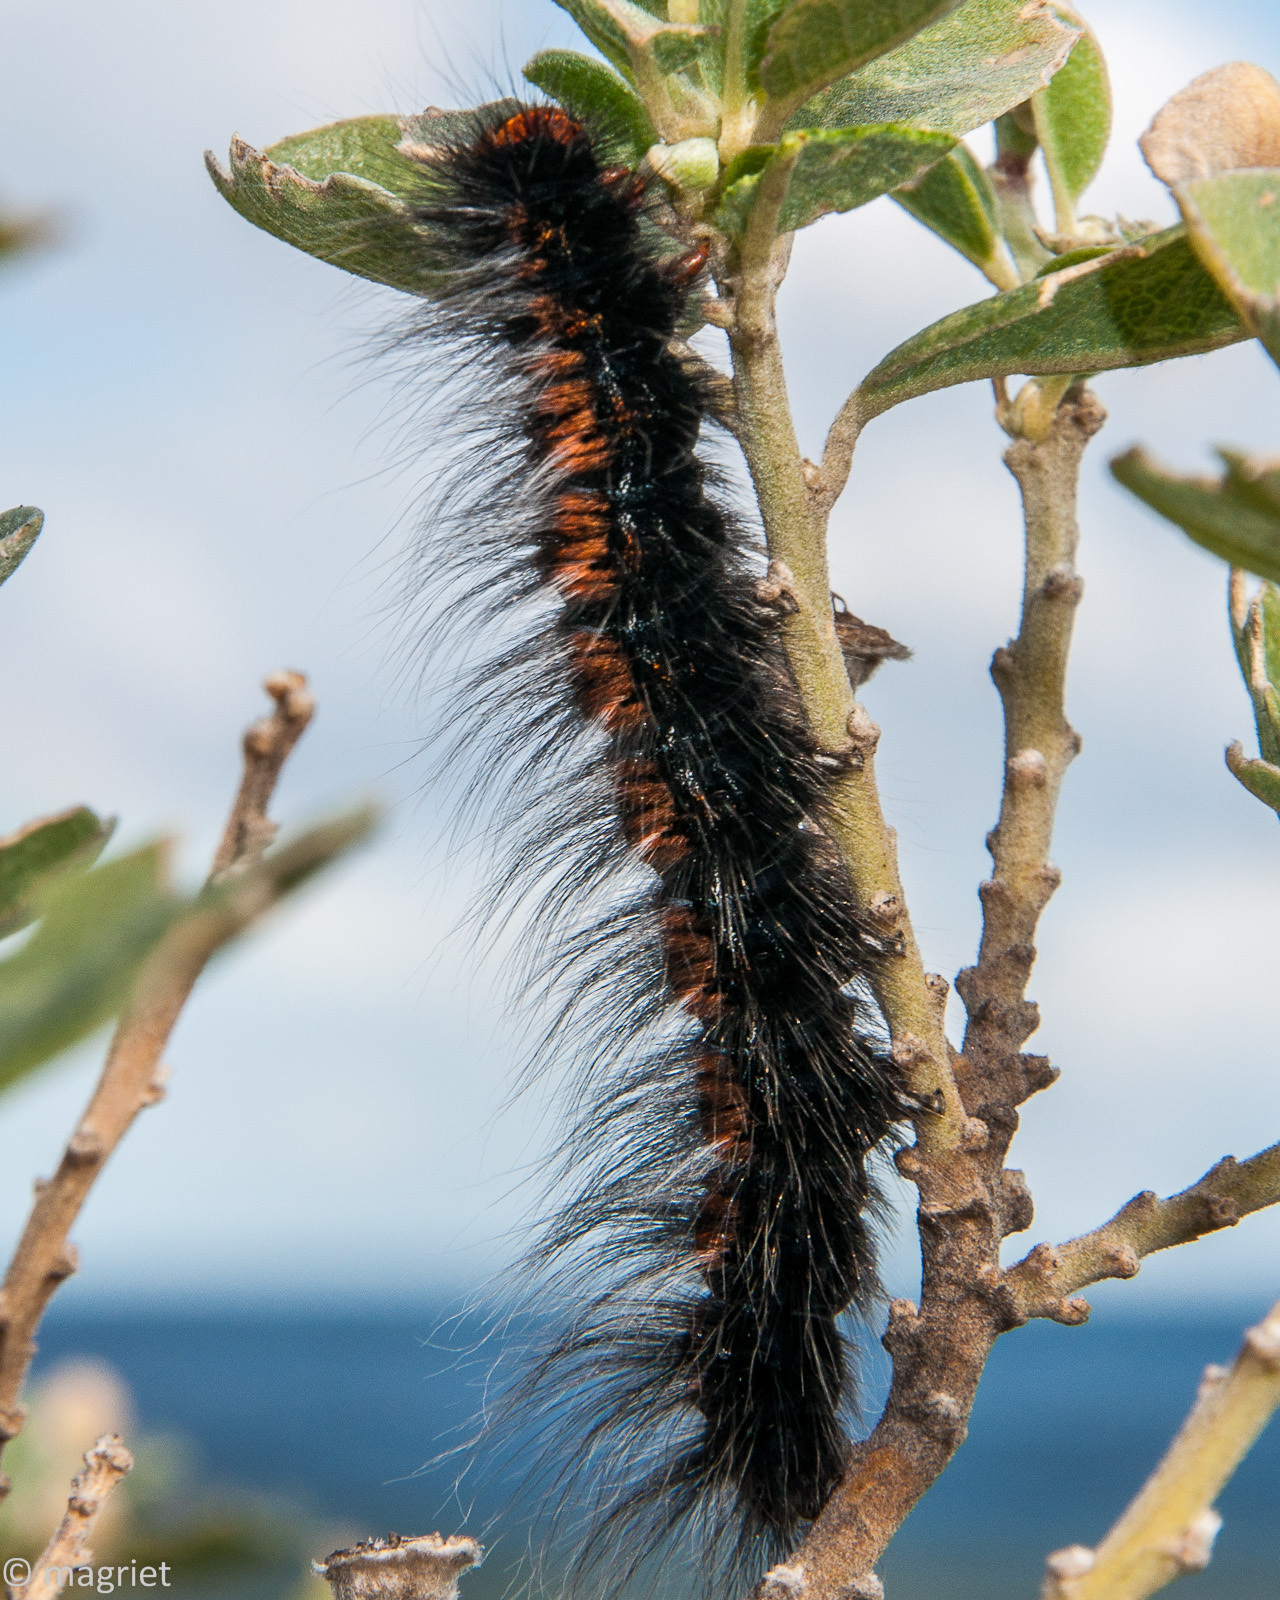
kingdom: Animalia
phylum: Arthropoda
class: Insecta
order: Lepidoptera
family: Lasiocampidae
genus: Mesocelis
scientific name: Mesocelis monticola
